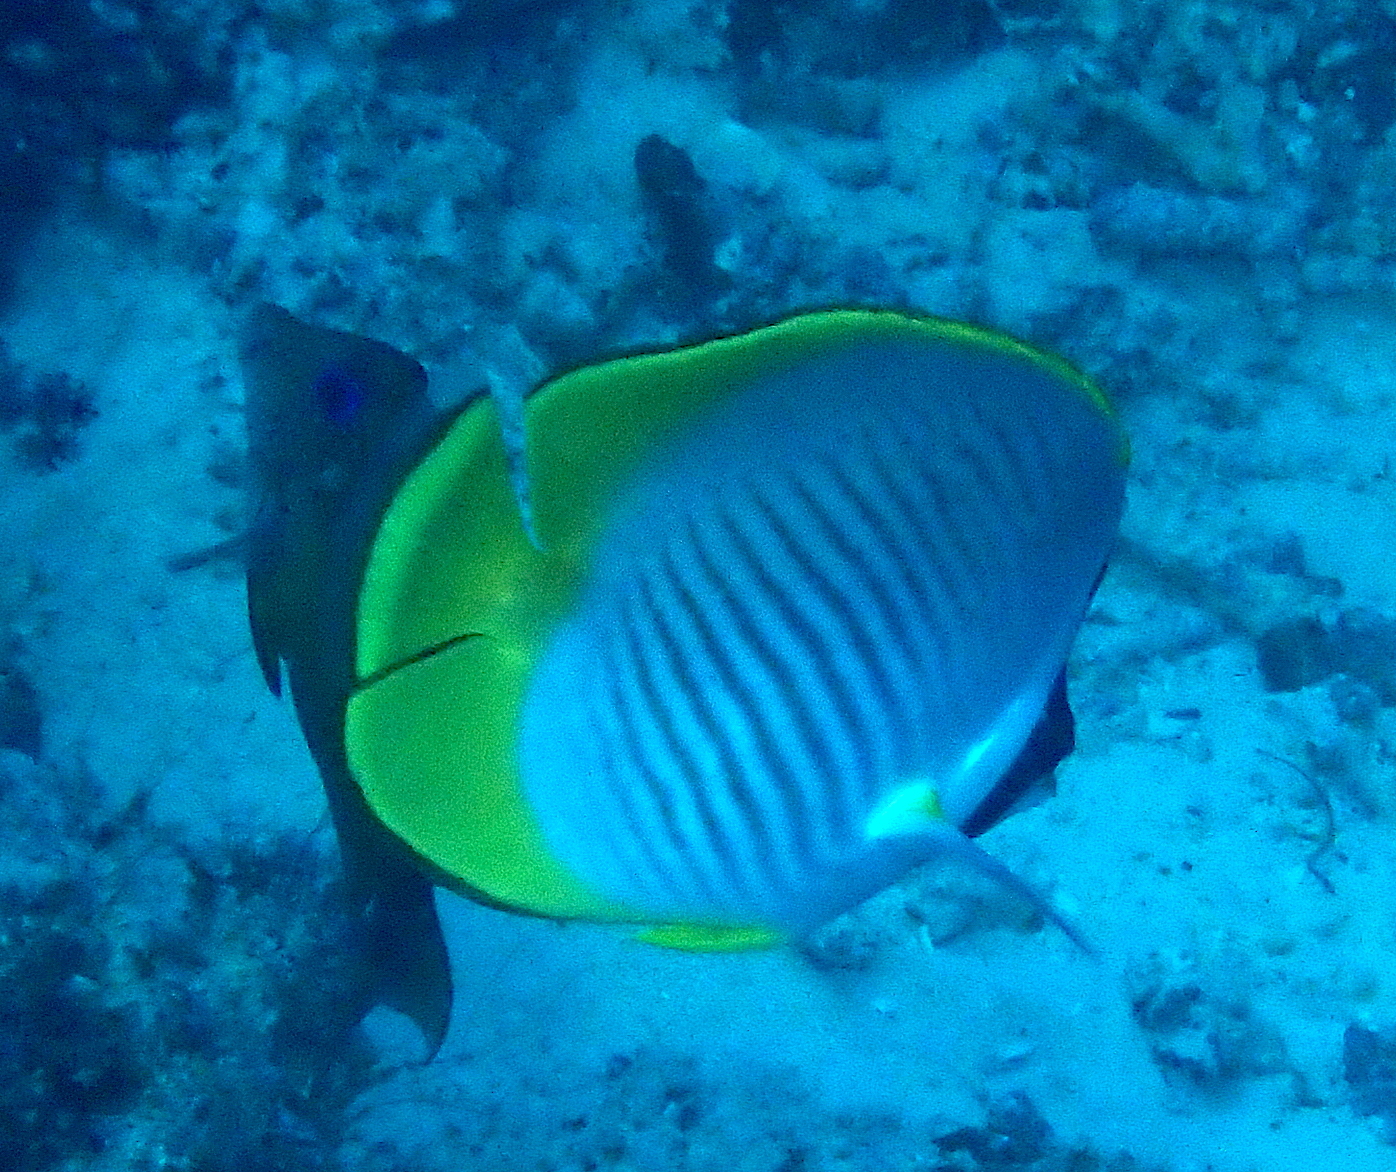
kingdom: Animalia
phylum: Chordata
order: Perciformes
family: Chaetodontidae
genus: Chaetodon
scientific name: Chaetodon adiergastos
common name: Eye-patch butterflyfish
